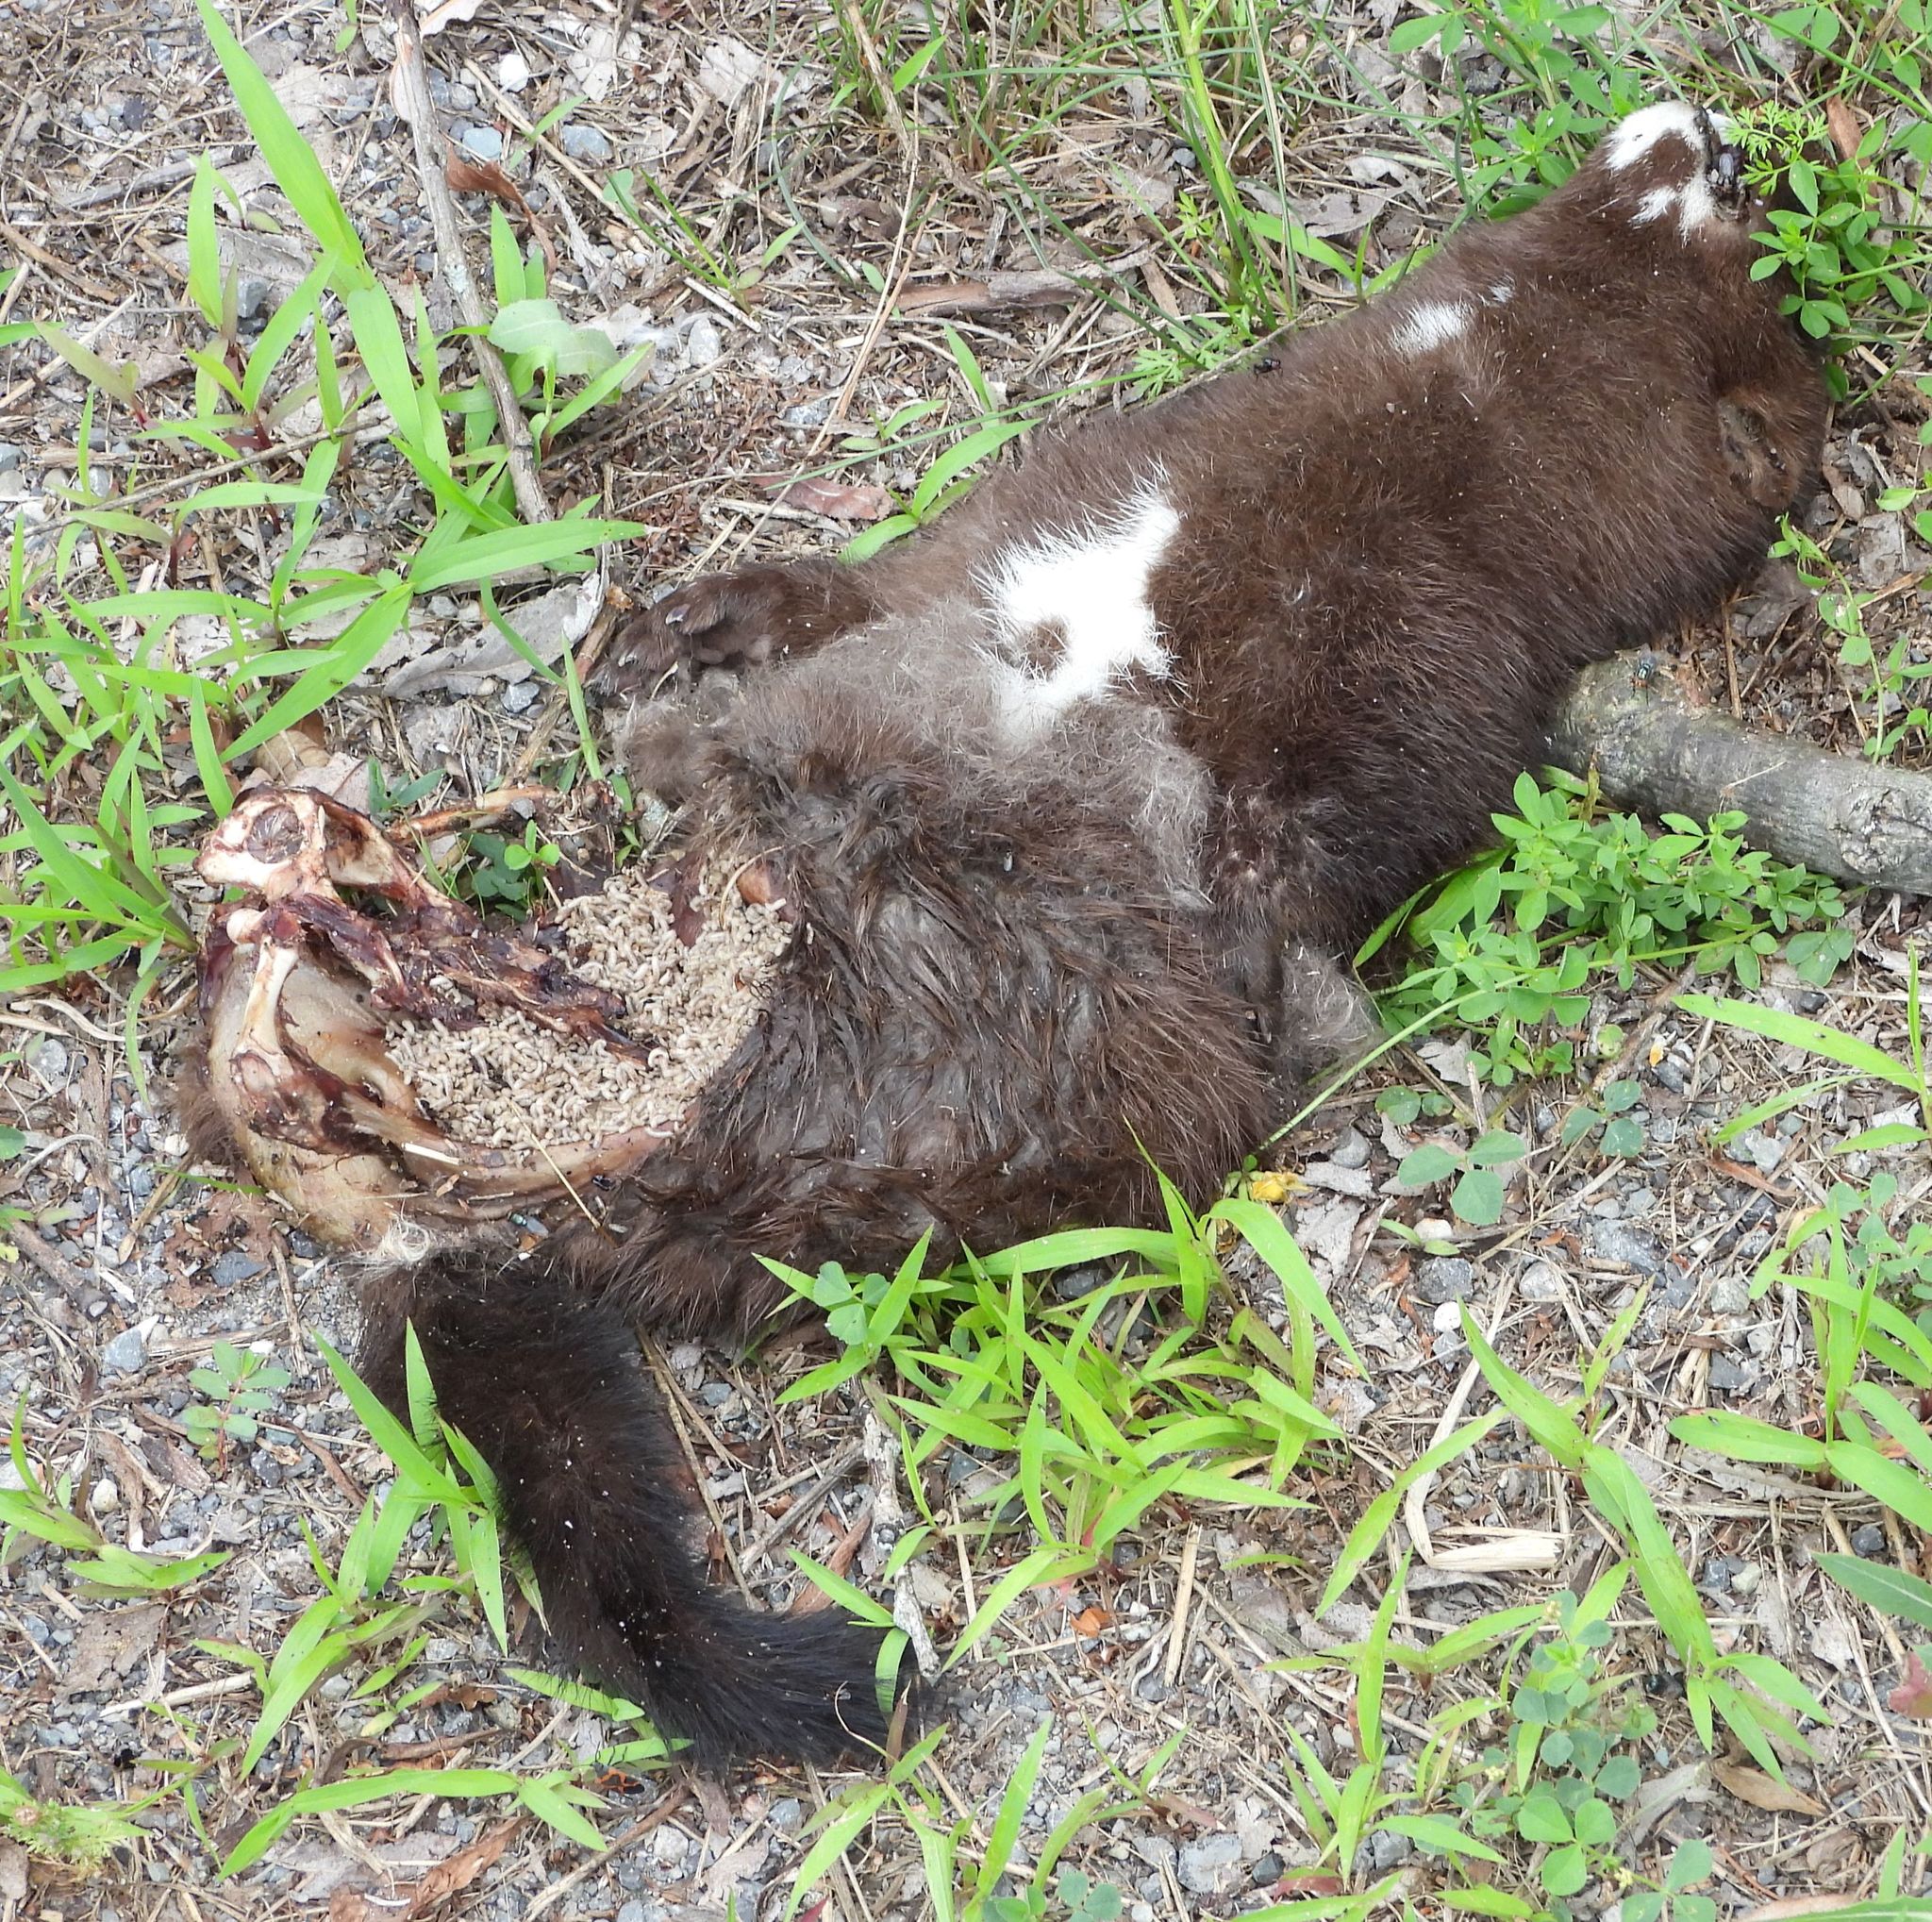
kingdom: Animalia
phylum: Chordata
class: Mammalia
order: Carnivora
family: Mustelidae
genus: Mustela
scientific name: Mustela
